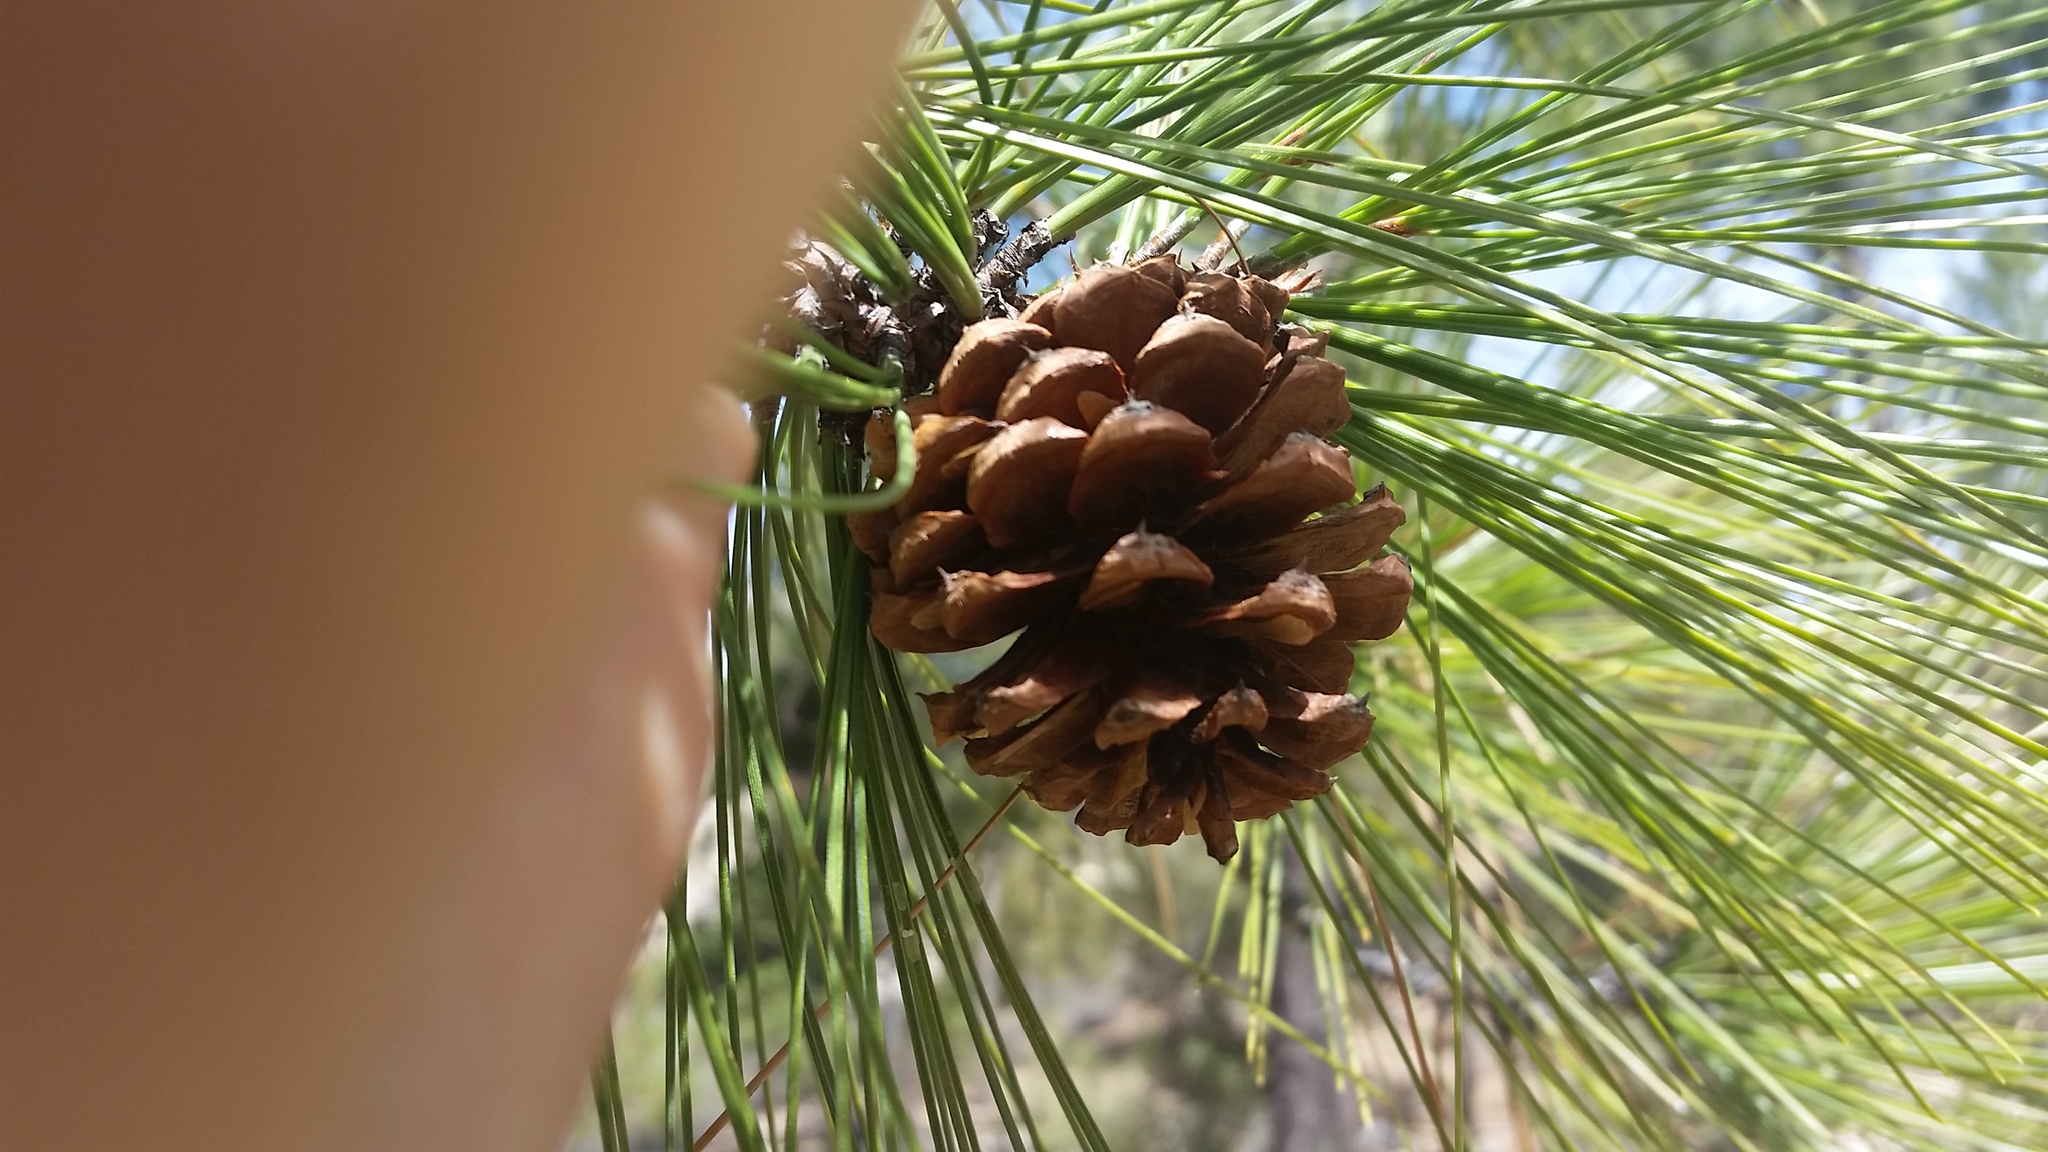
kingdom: Plantae
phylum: Tracheophyta
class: Pinopsida
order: Pinales
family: Pinaceae
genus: Pinus
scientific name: Pinus leiophylla
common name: Chihuahua pine
